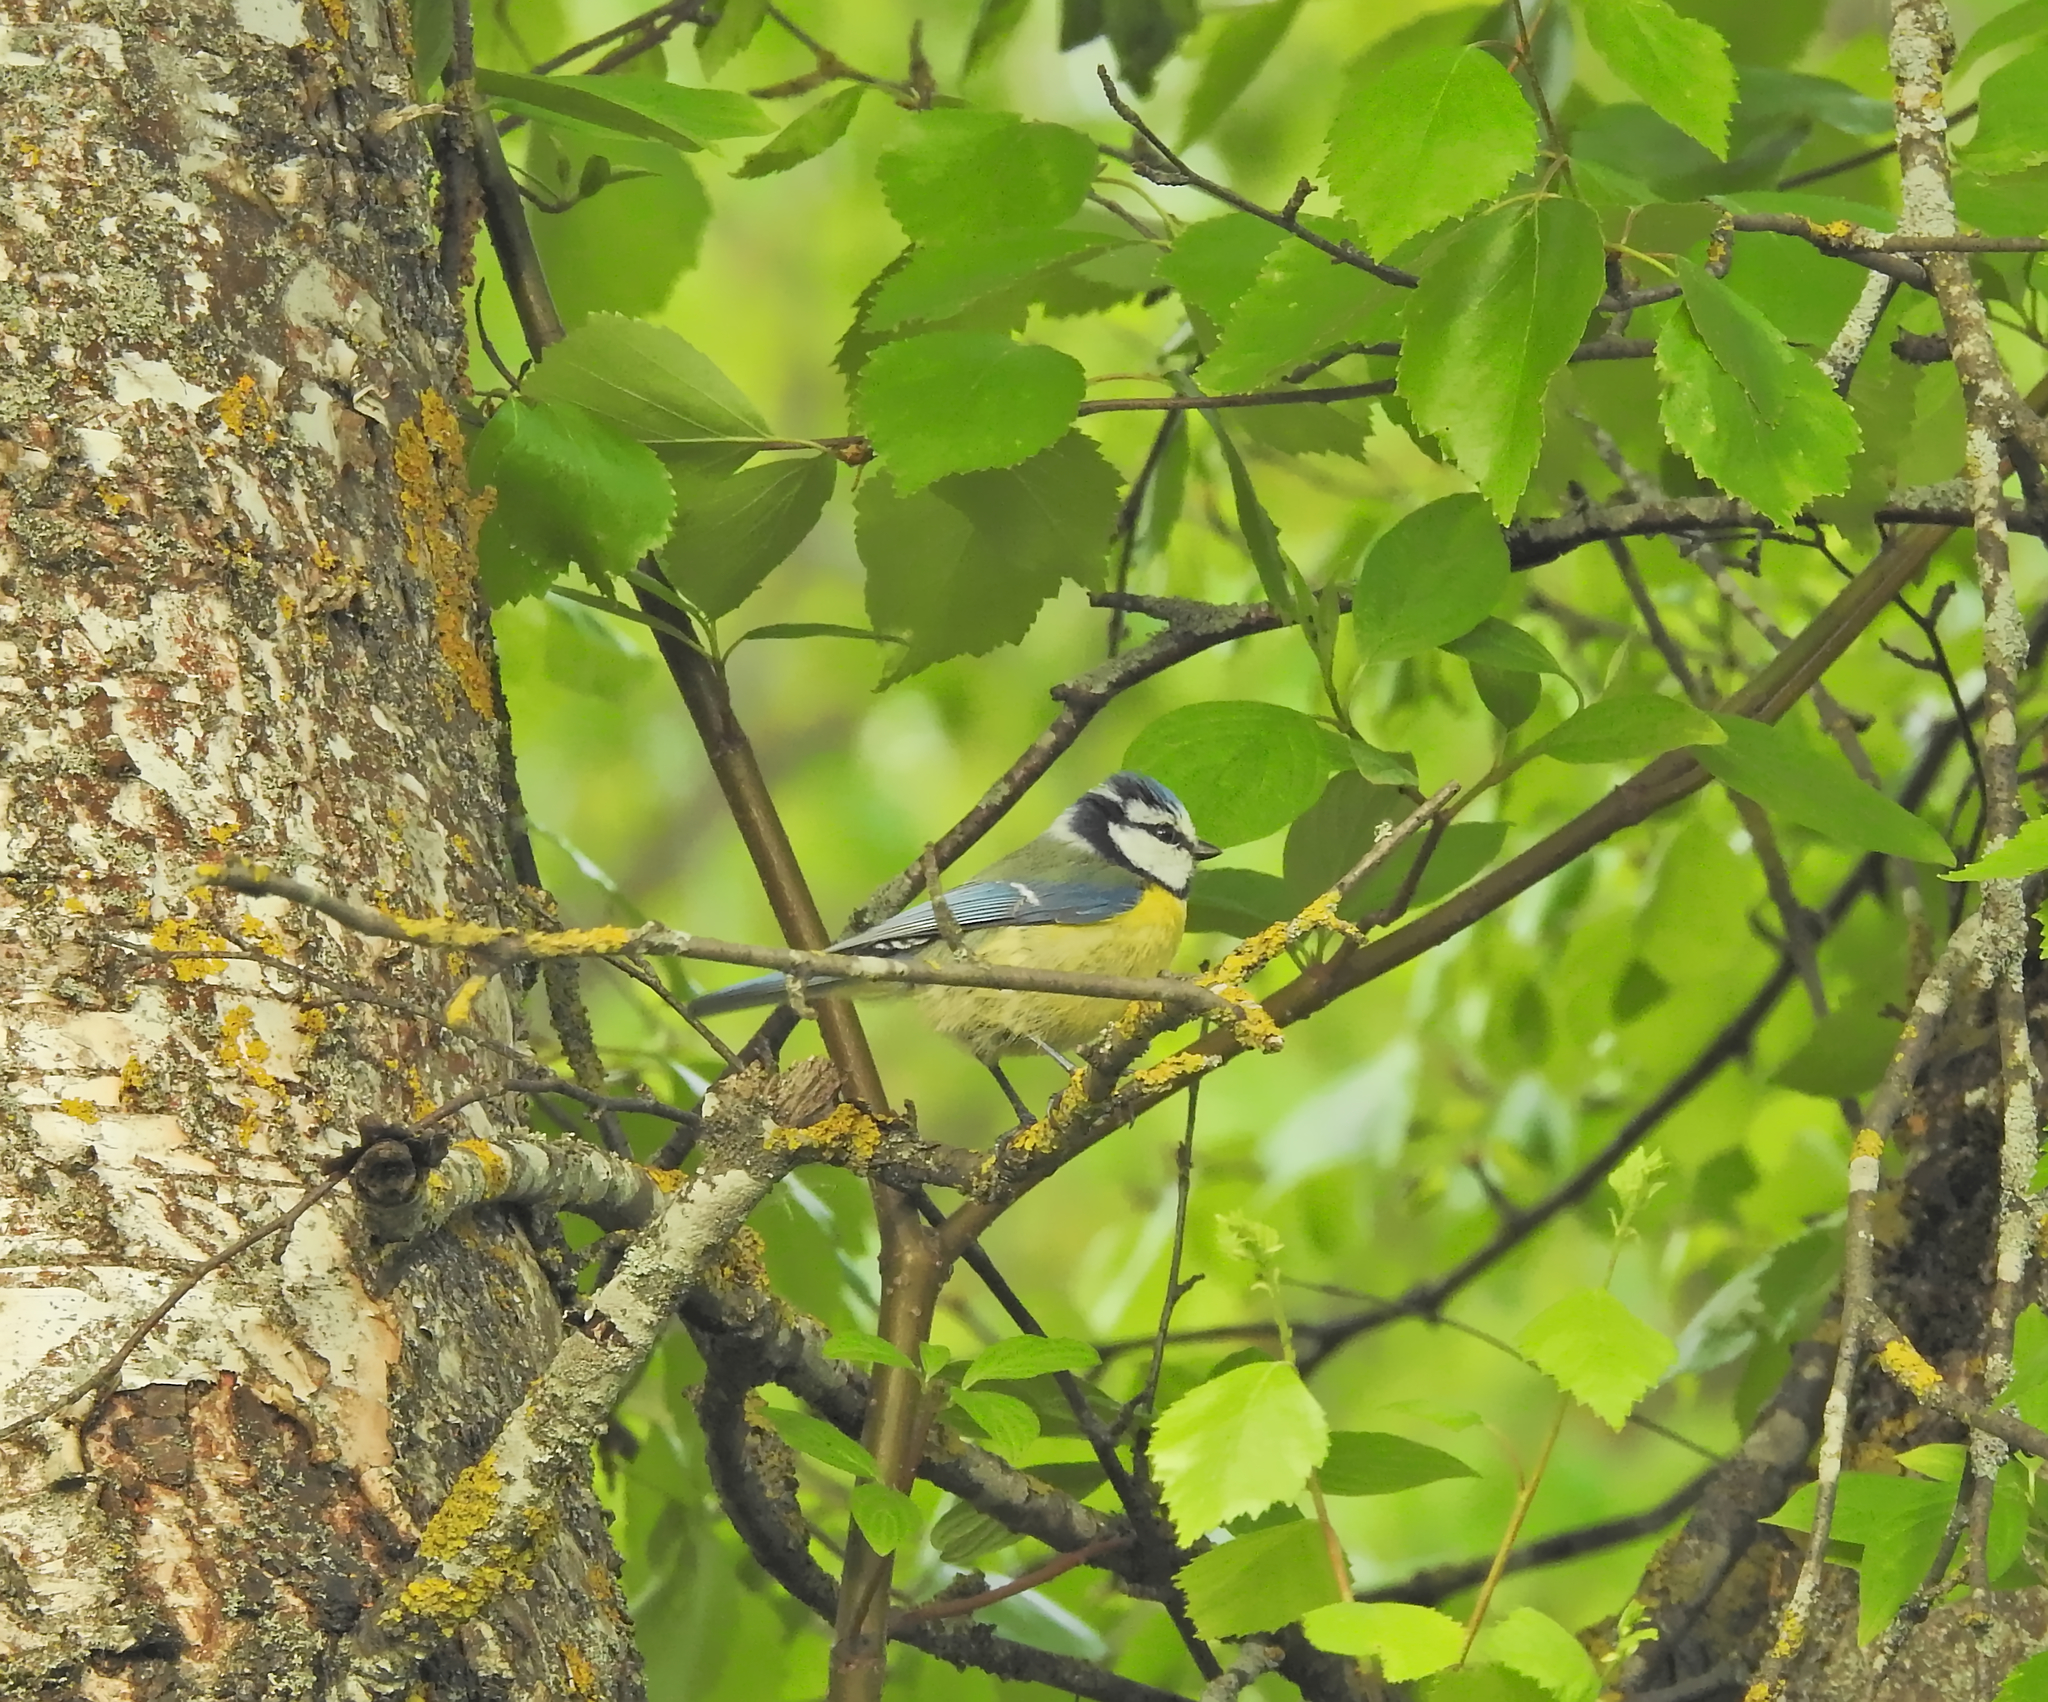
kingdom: Animalia
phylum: Chordata
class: Aves
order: Passeriformes
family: Paridae
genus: Cyanistes
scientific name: Cyanistes caeruleus
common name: Eurasian blue tit
